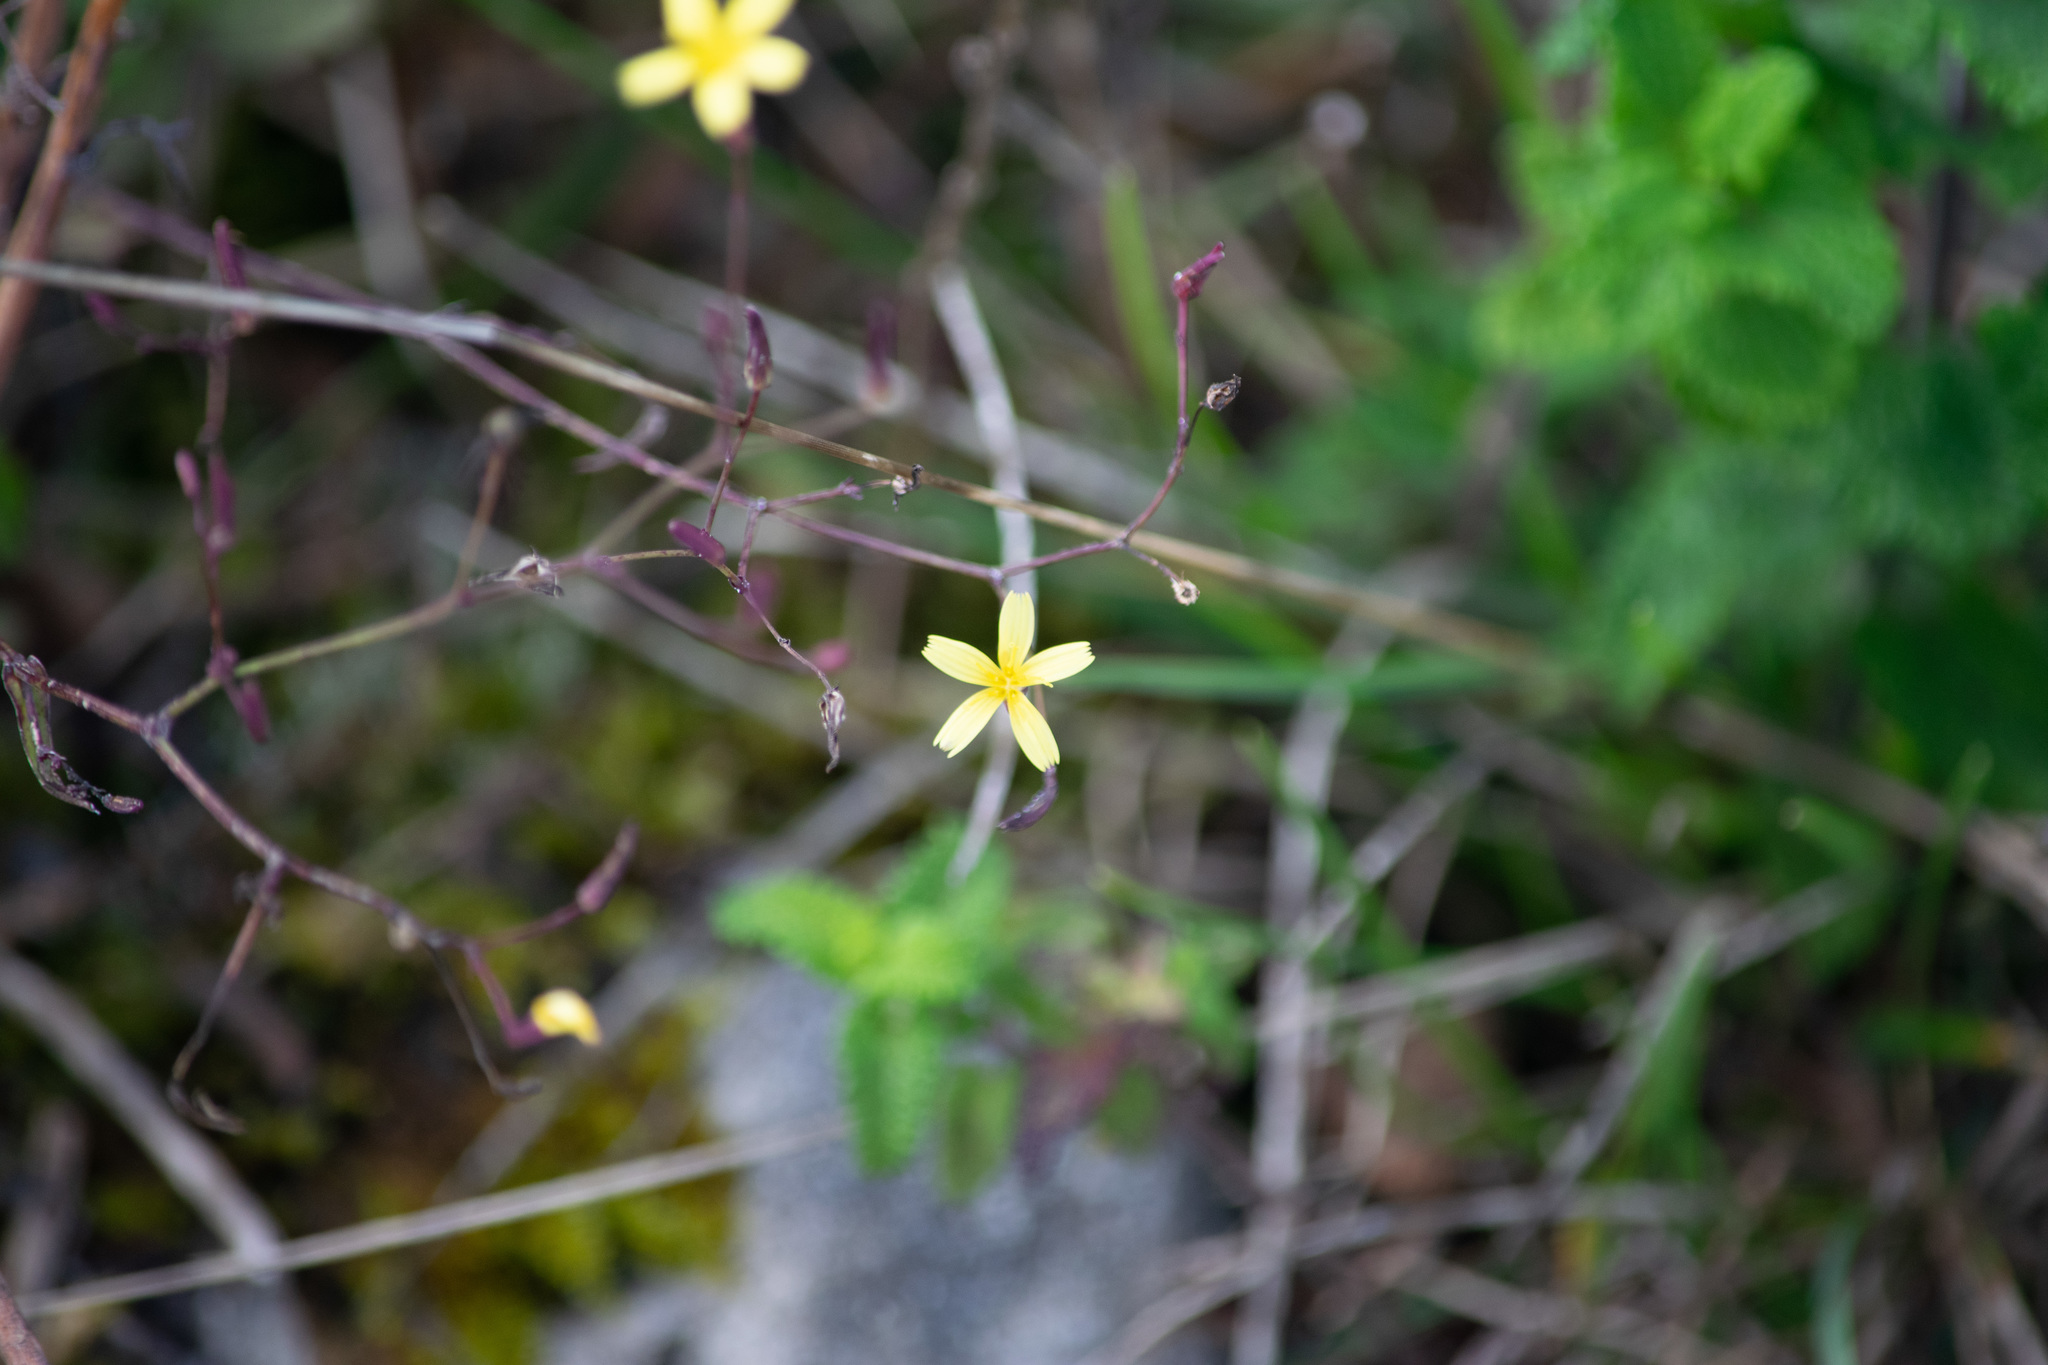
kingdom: Plantae
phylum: Tracheophyta
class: Magnoliopsida
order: Asterales
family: Asteraceae
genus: Mycelis
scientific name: Mycelis muralis
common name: Wall lettuce
